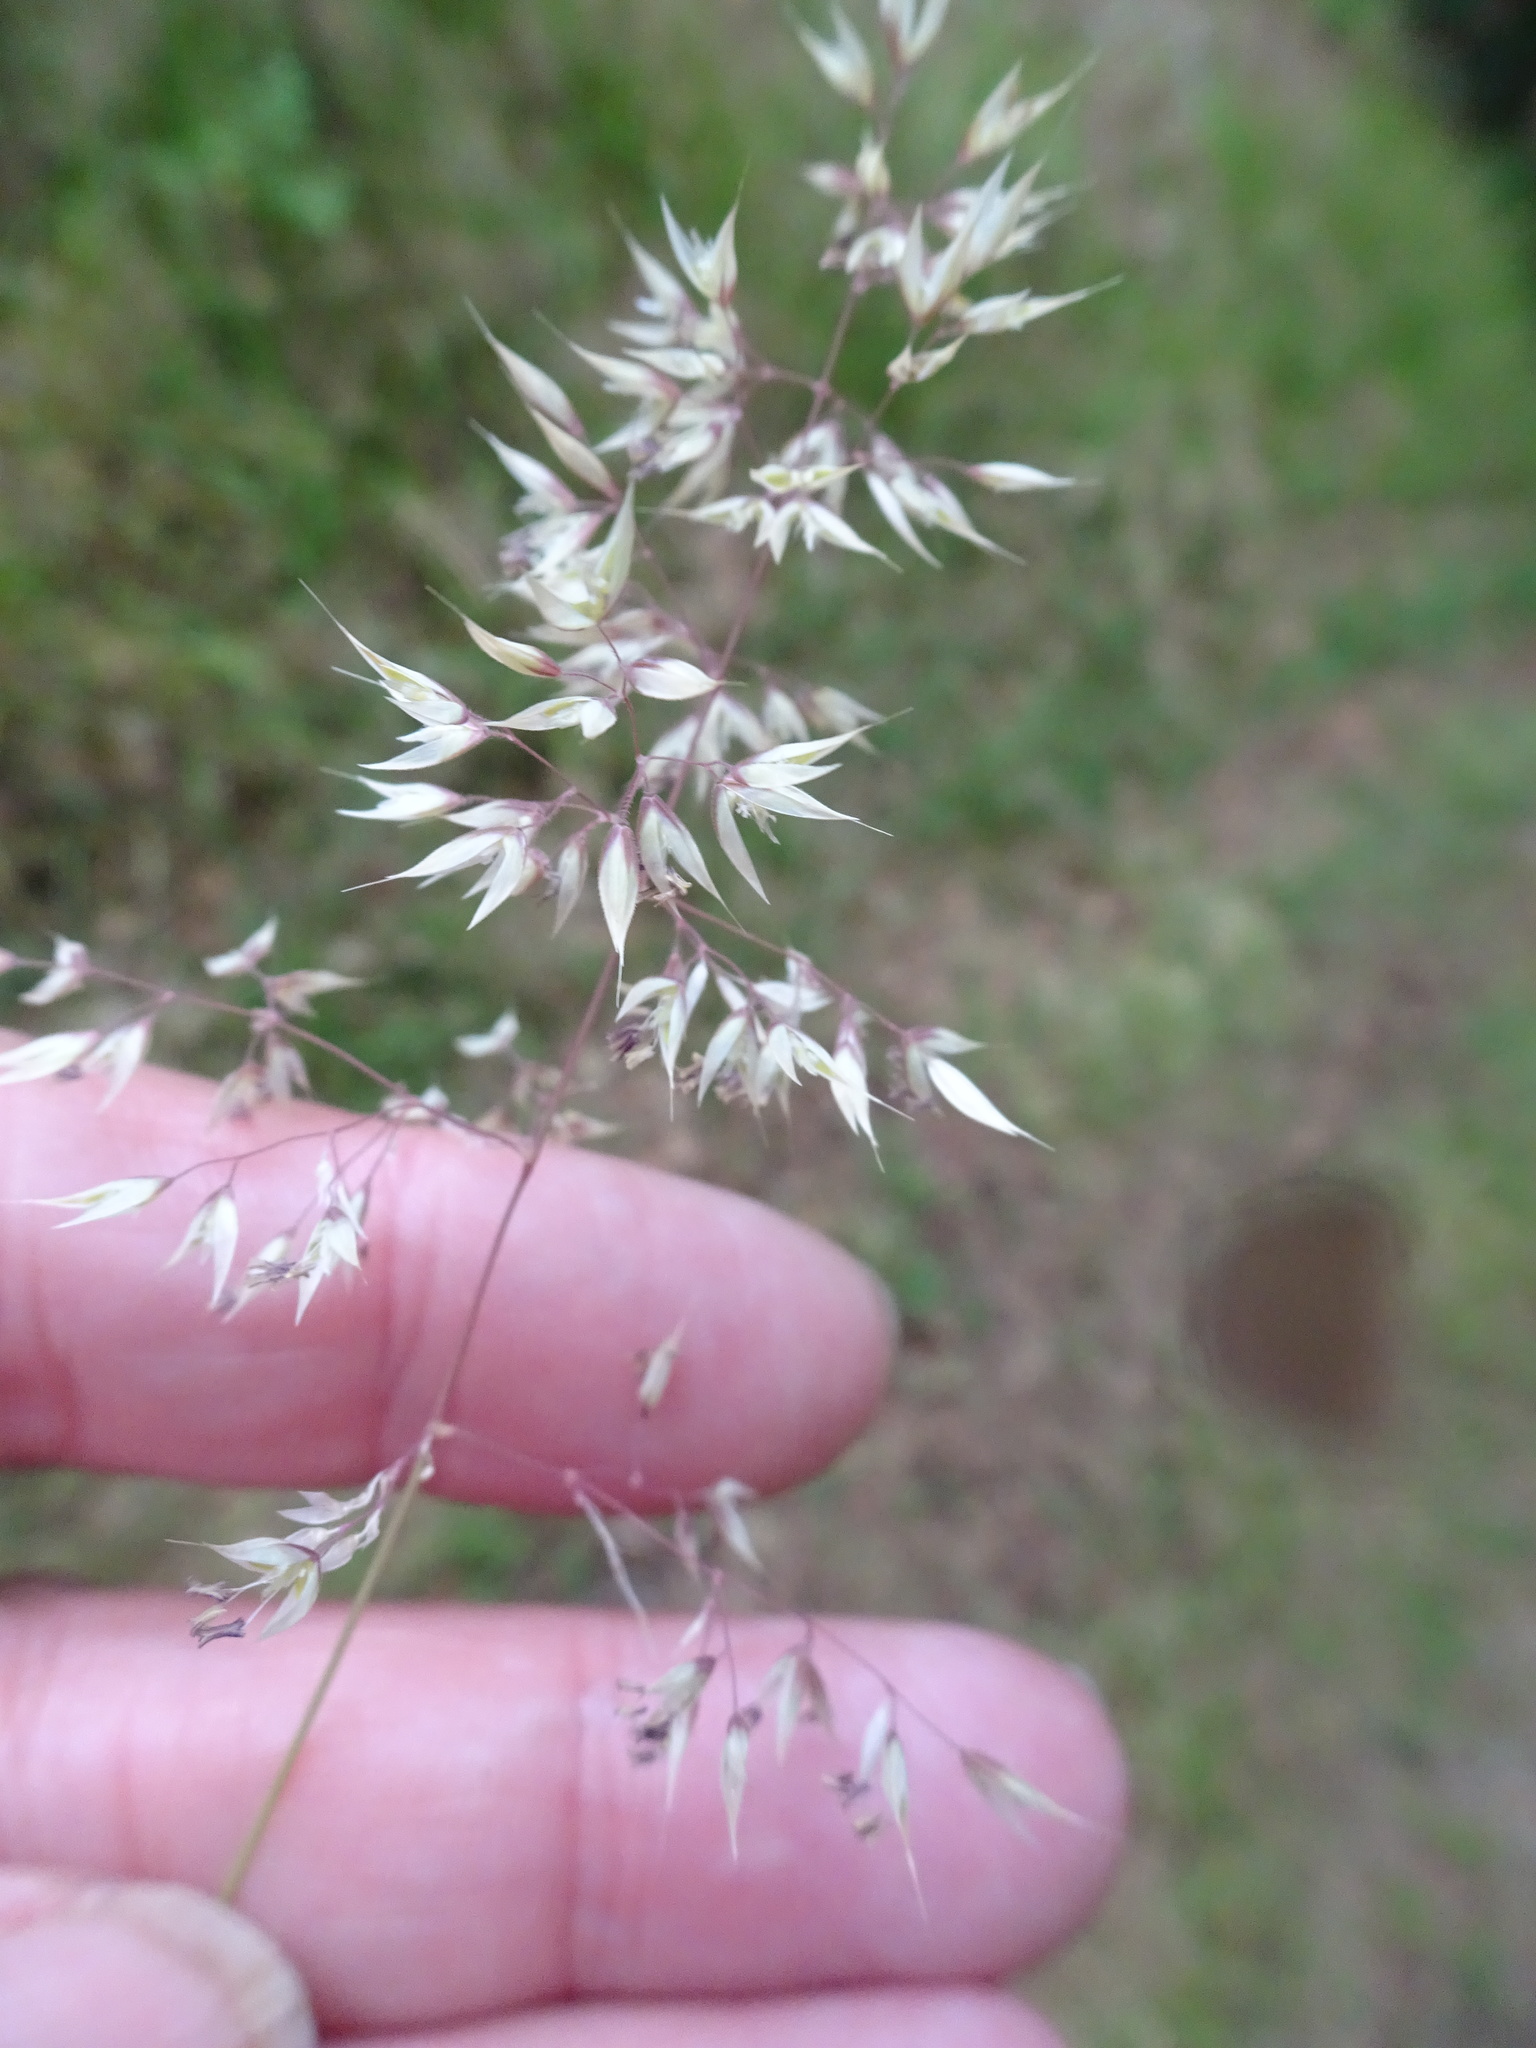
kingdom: Plantae
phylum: Tracheophyta
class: Liliopsida
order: Poales
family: Poaceae
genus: Holcus
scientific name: Holcus mollis
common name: Creeping velvetgrass
